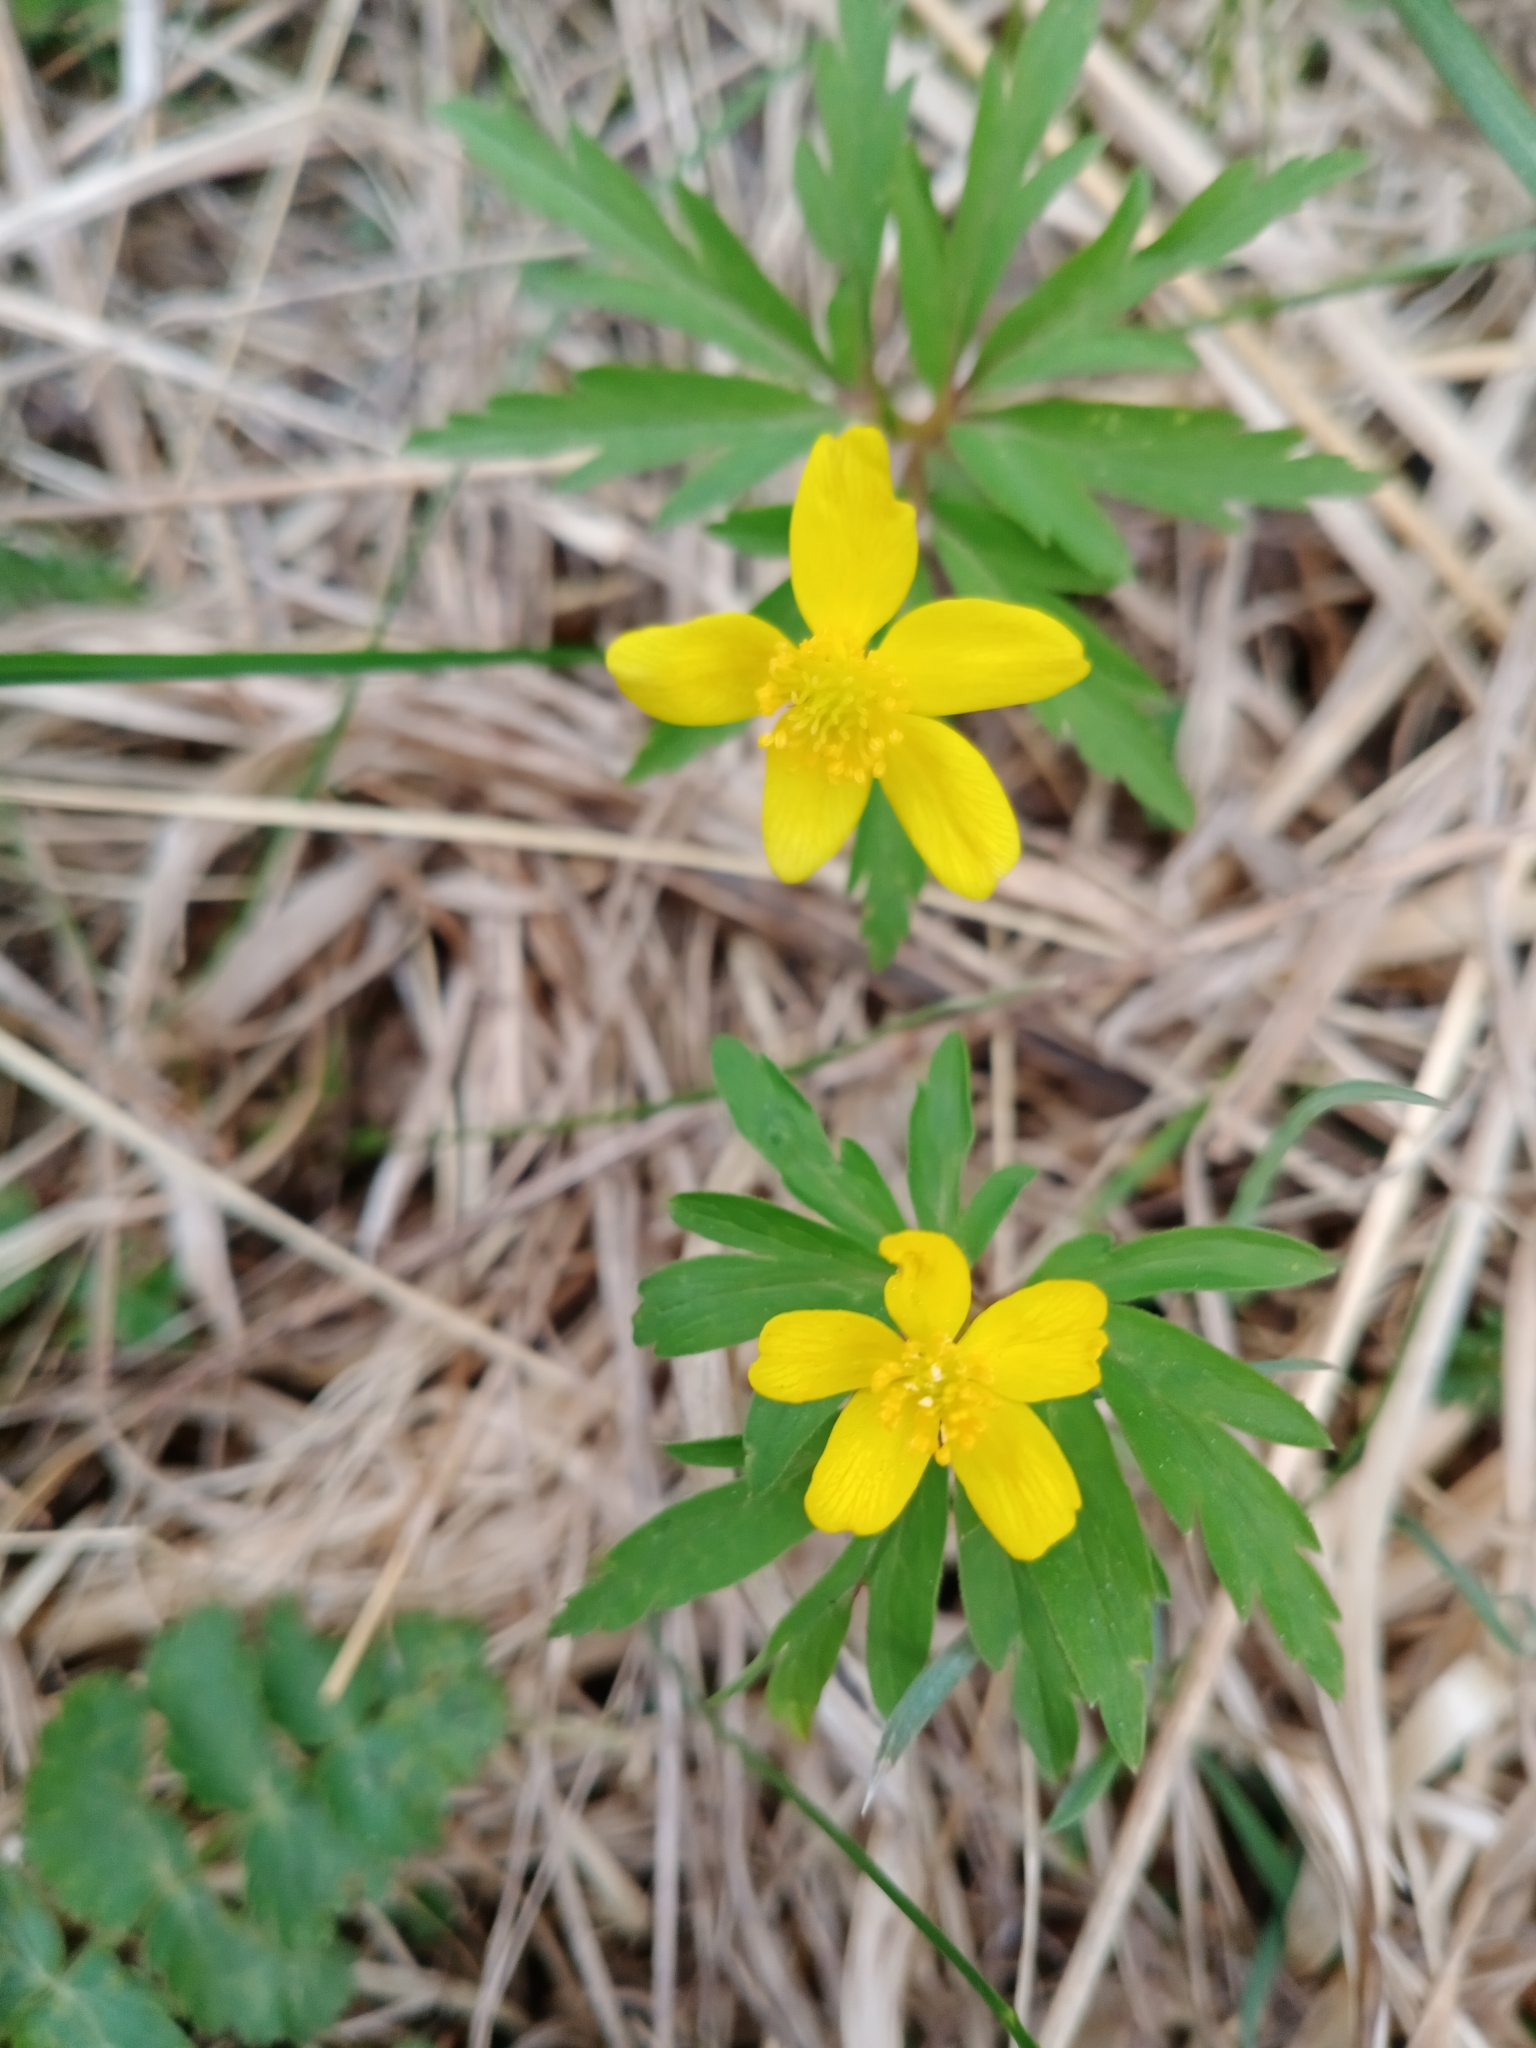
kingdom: Plantae
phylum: Tracheophyta
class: Magnoliopsida
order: Ranunculales
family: Ranunculaceae
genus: Anemone
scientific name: Anemone ranunculoides
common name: Yellow anemone
